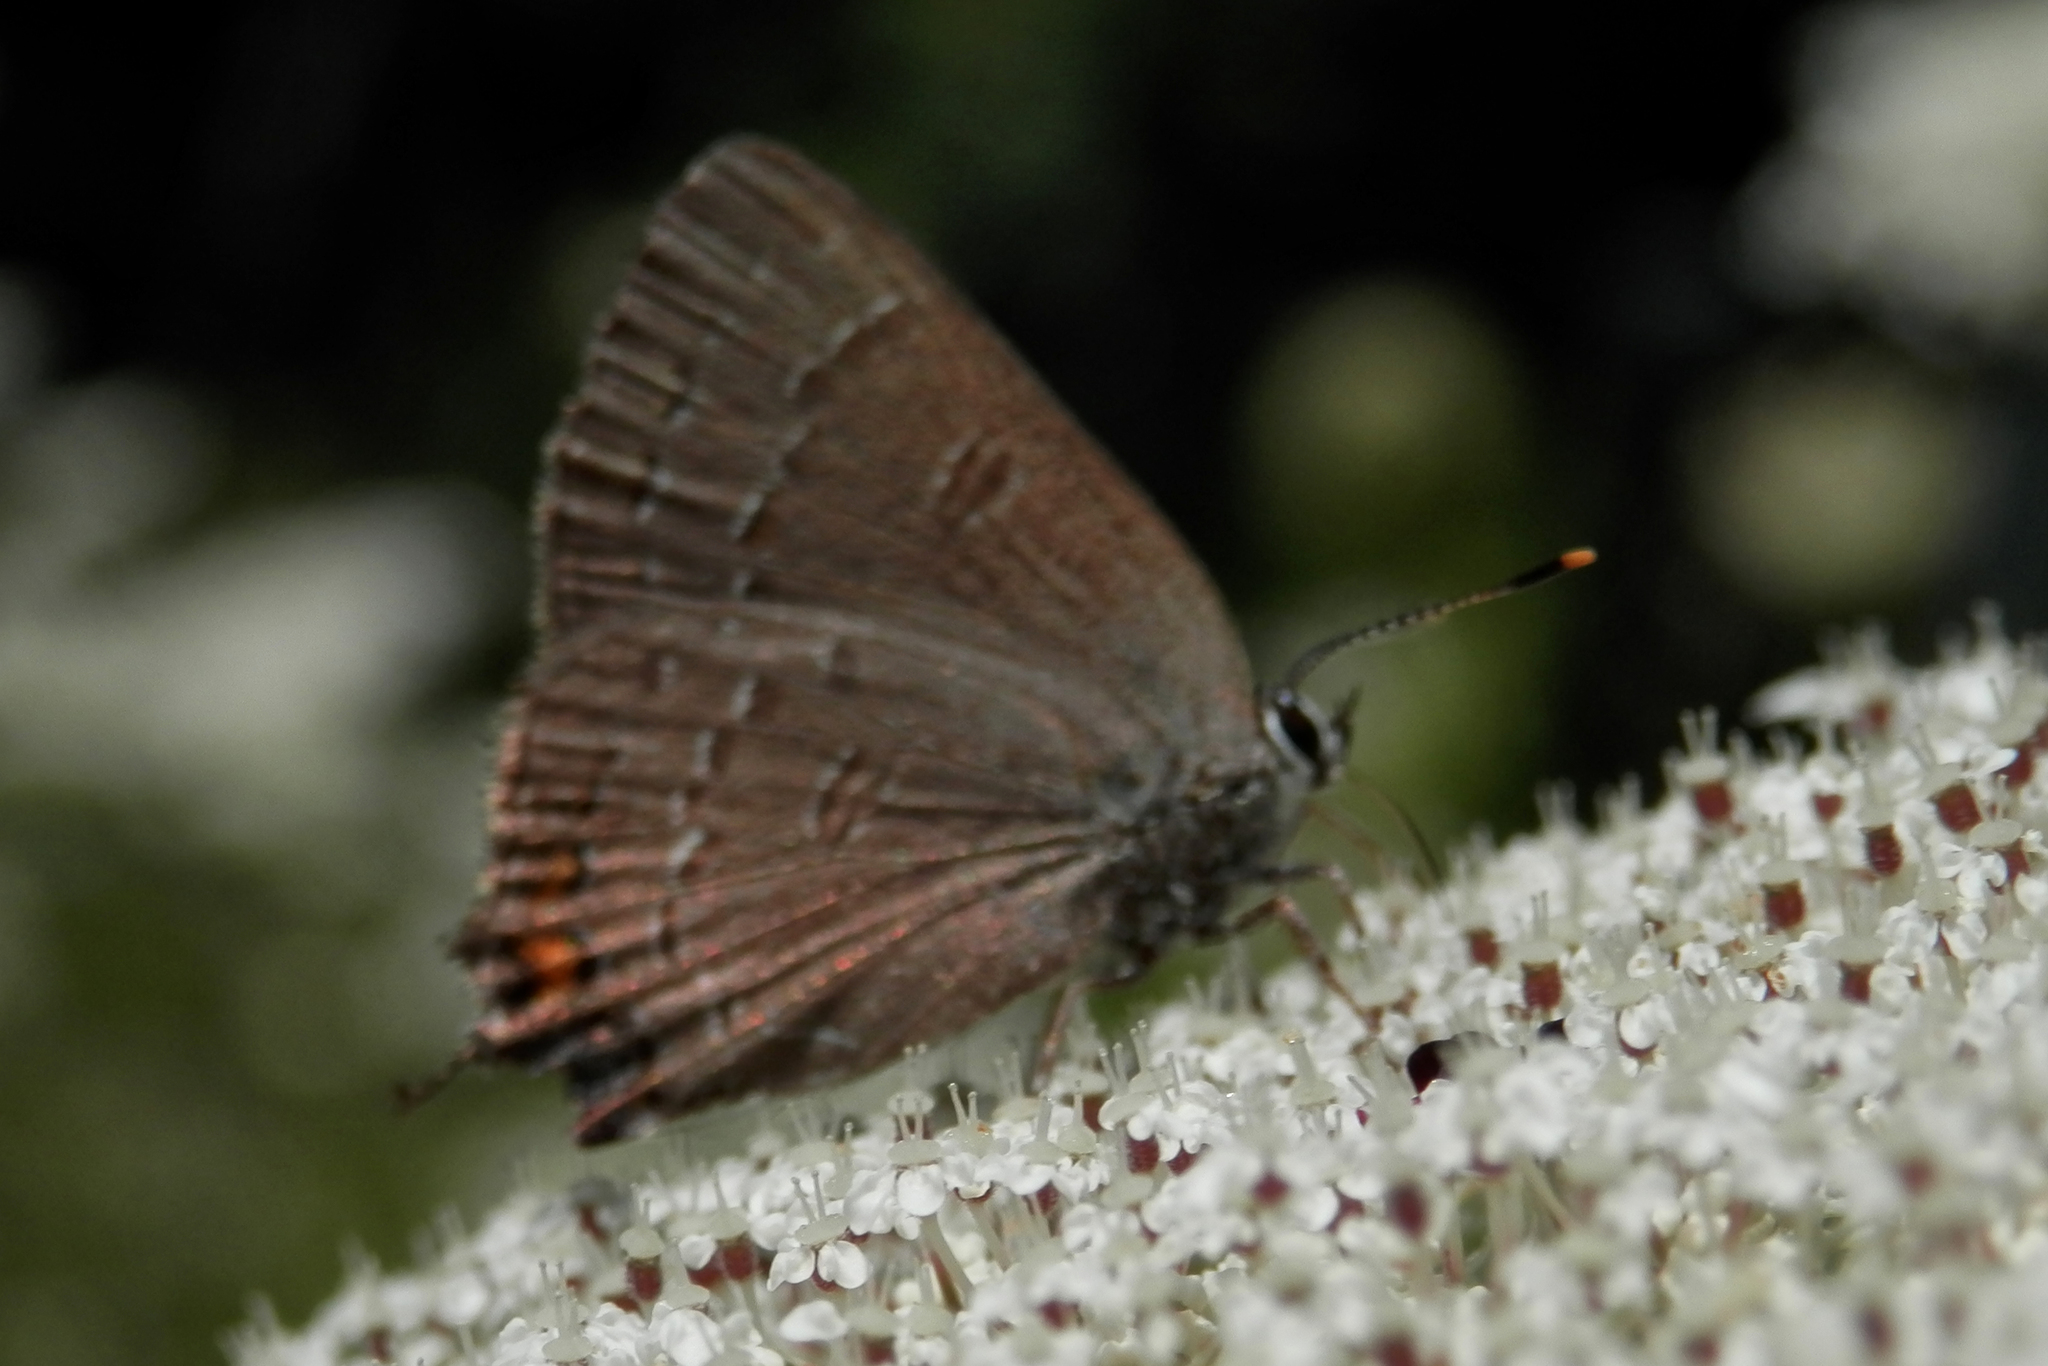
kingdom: Animalia
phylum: Arthropoda
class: Insecta
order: Lepidoptera
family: Lycaenidae
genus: Satyrium
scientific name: Satyrium calanus
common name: Banded hairstreak
